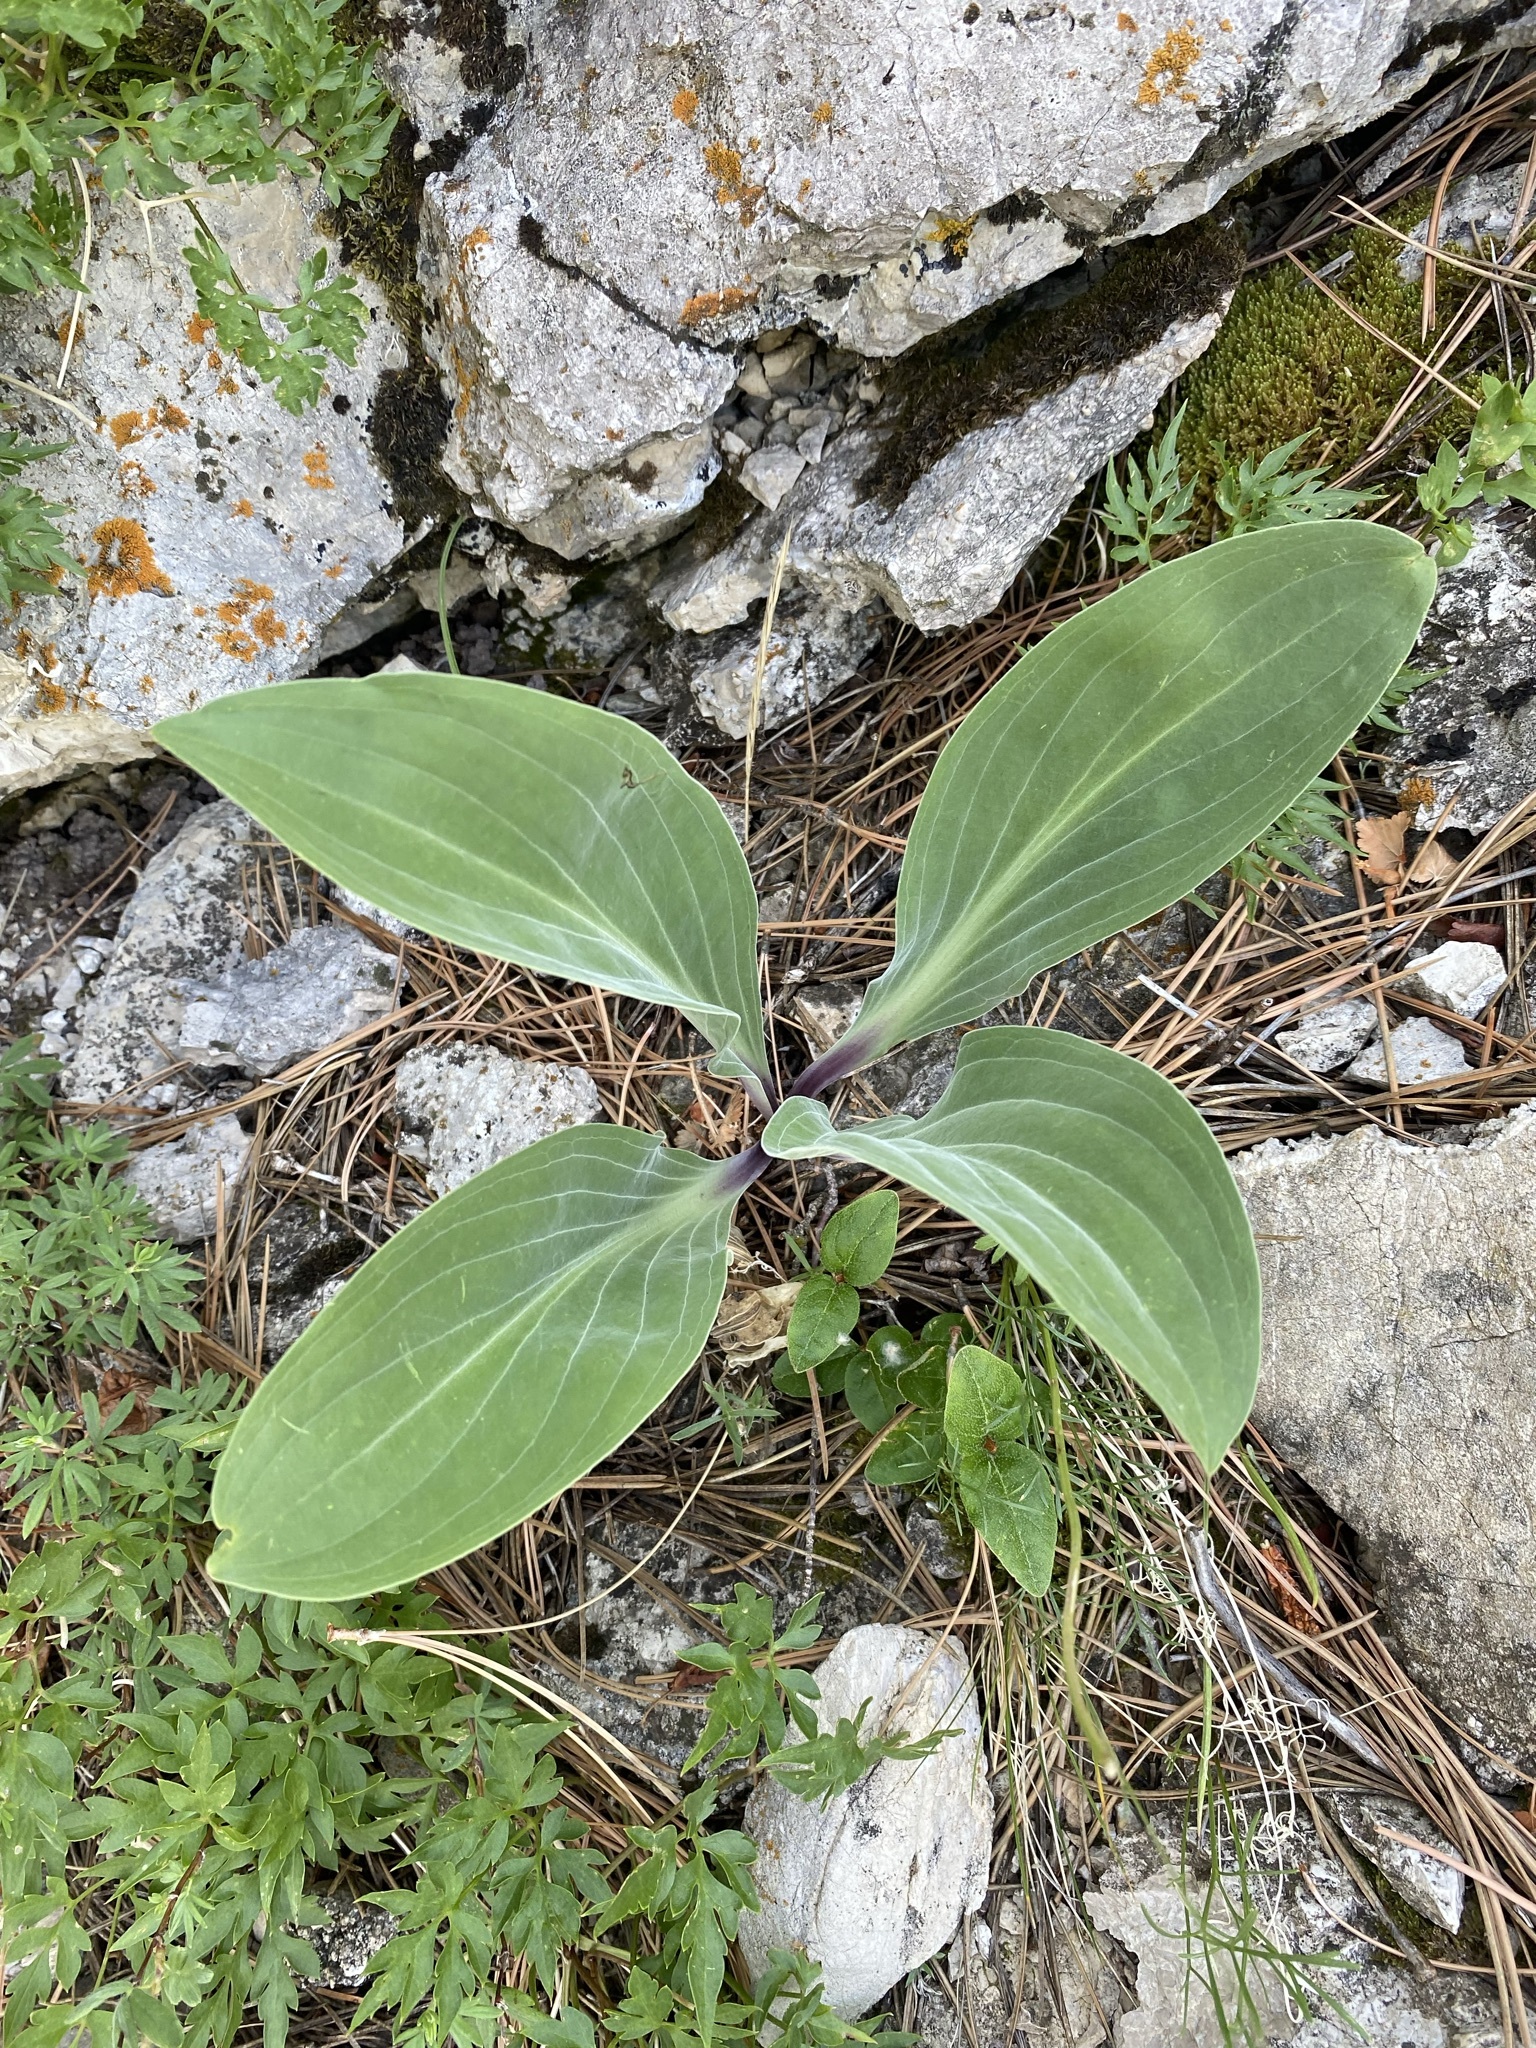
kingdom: Plantae
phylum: Tracheophyta
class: Magnoliopsida
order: Gentianales
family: Gentianaceae
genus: Frasera
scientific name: Frasera speciosa
